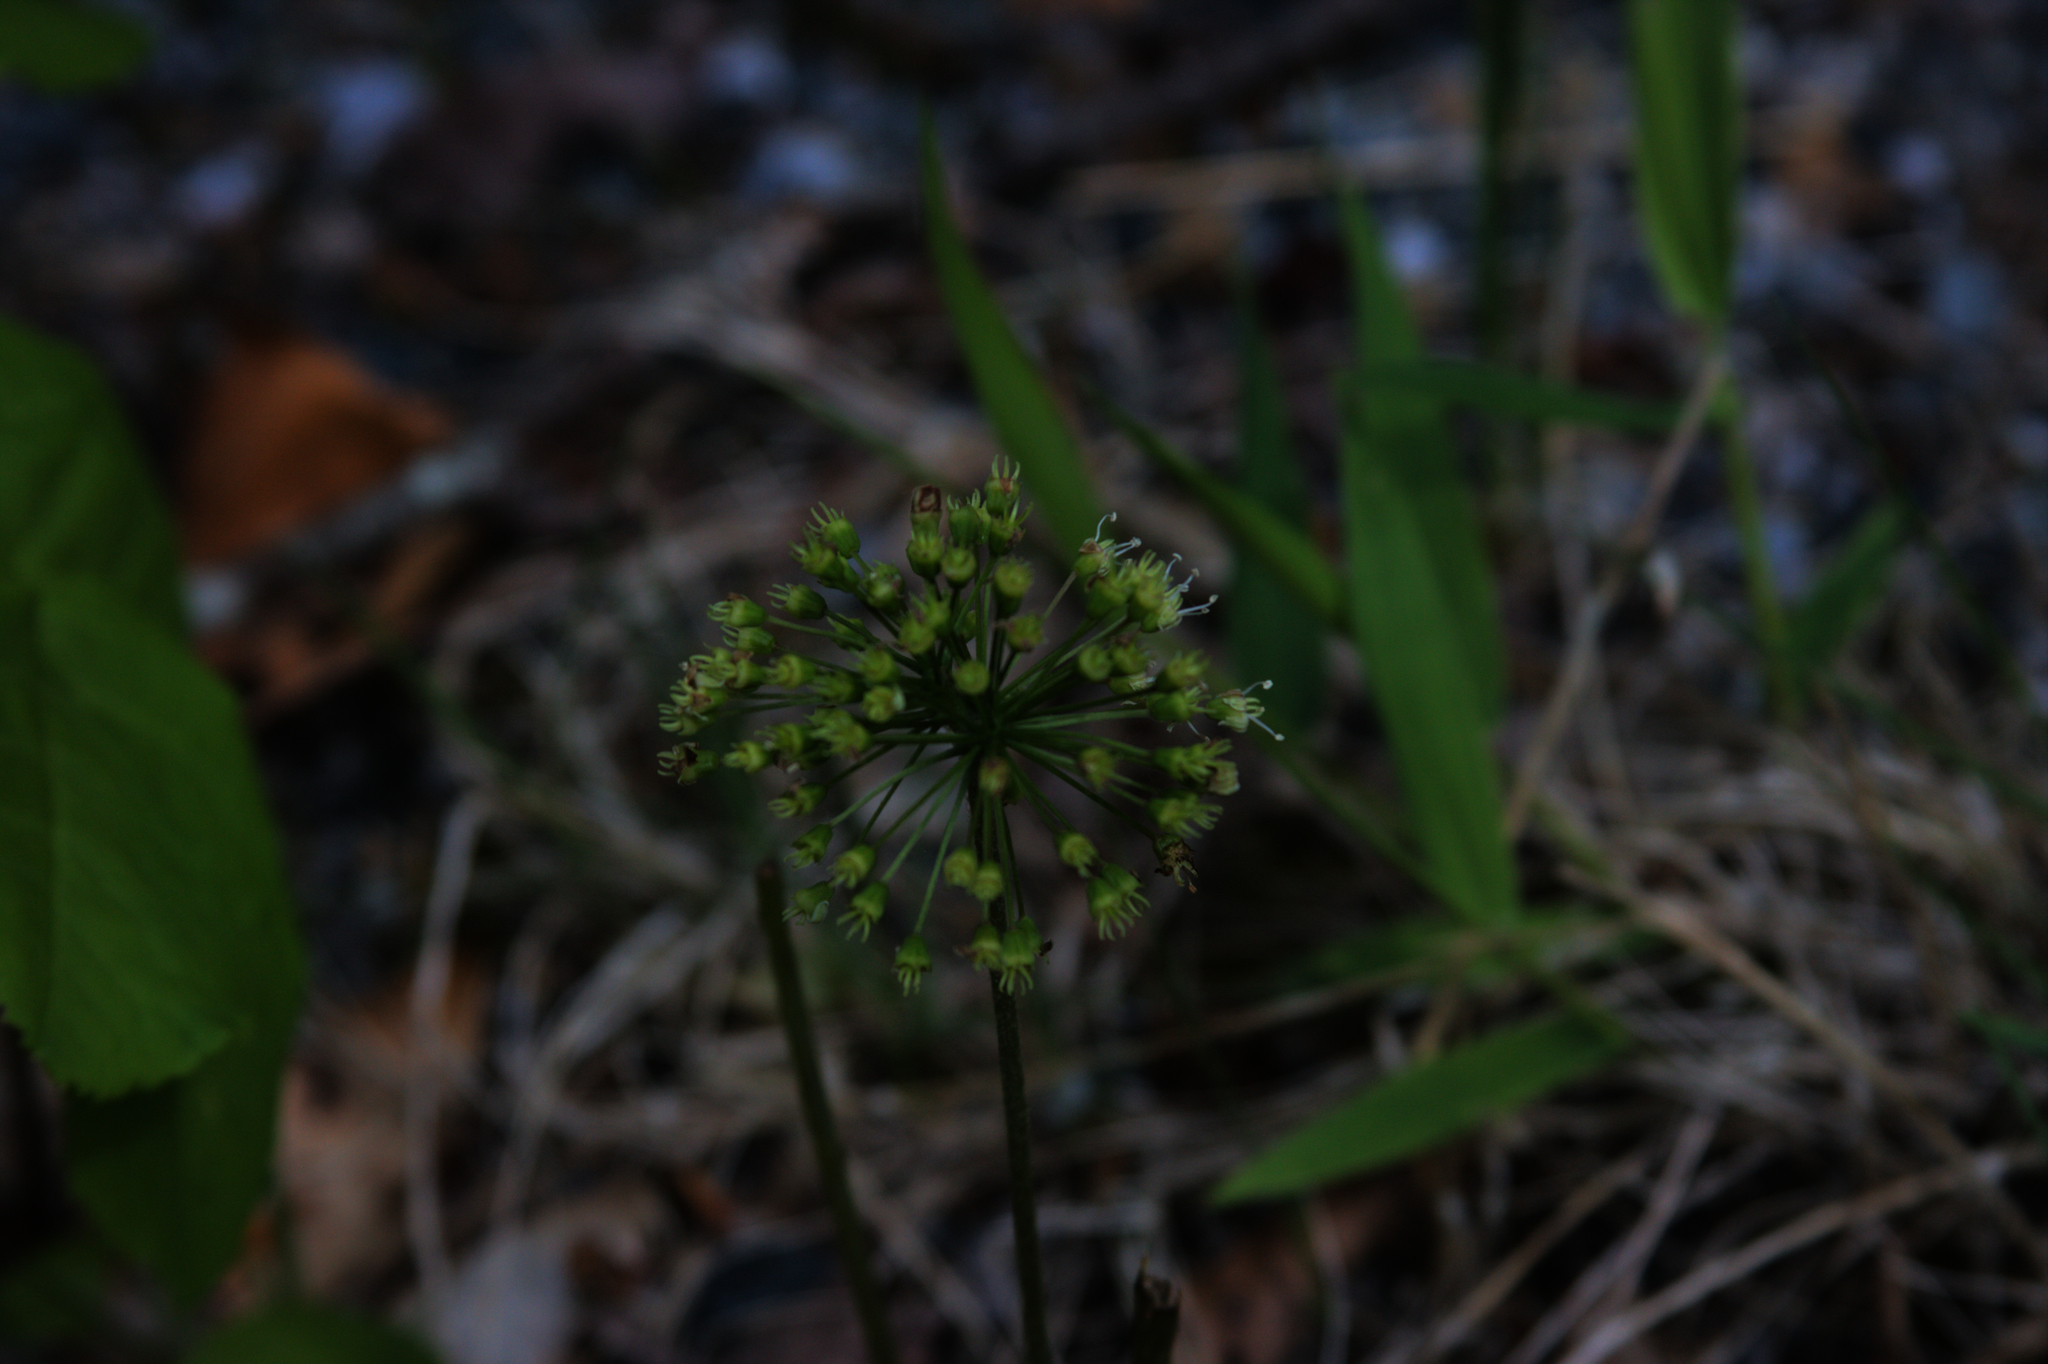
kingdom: Plantae
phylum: Tracheophyta
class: Magnoliopsida
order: Apiales
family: Araliaceae
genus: Aralia
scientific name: Aralia nudicaulis
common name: Wild sarsaparilla
